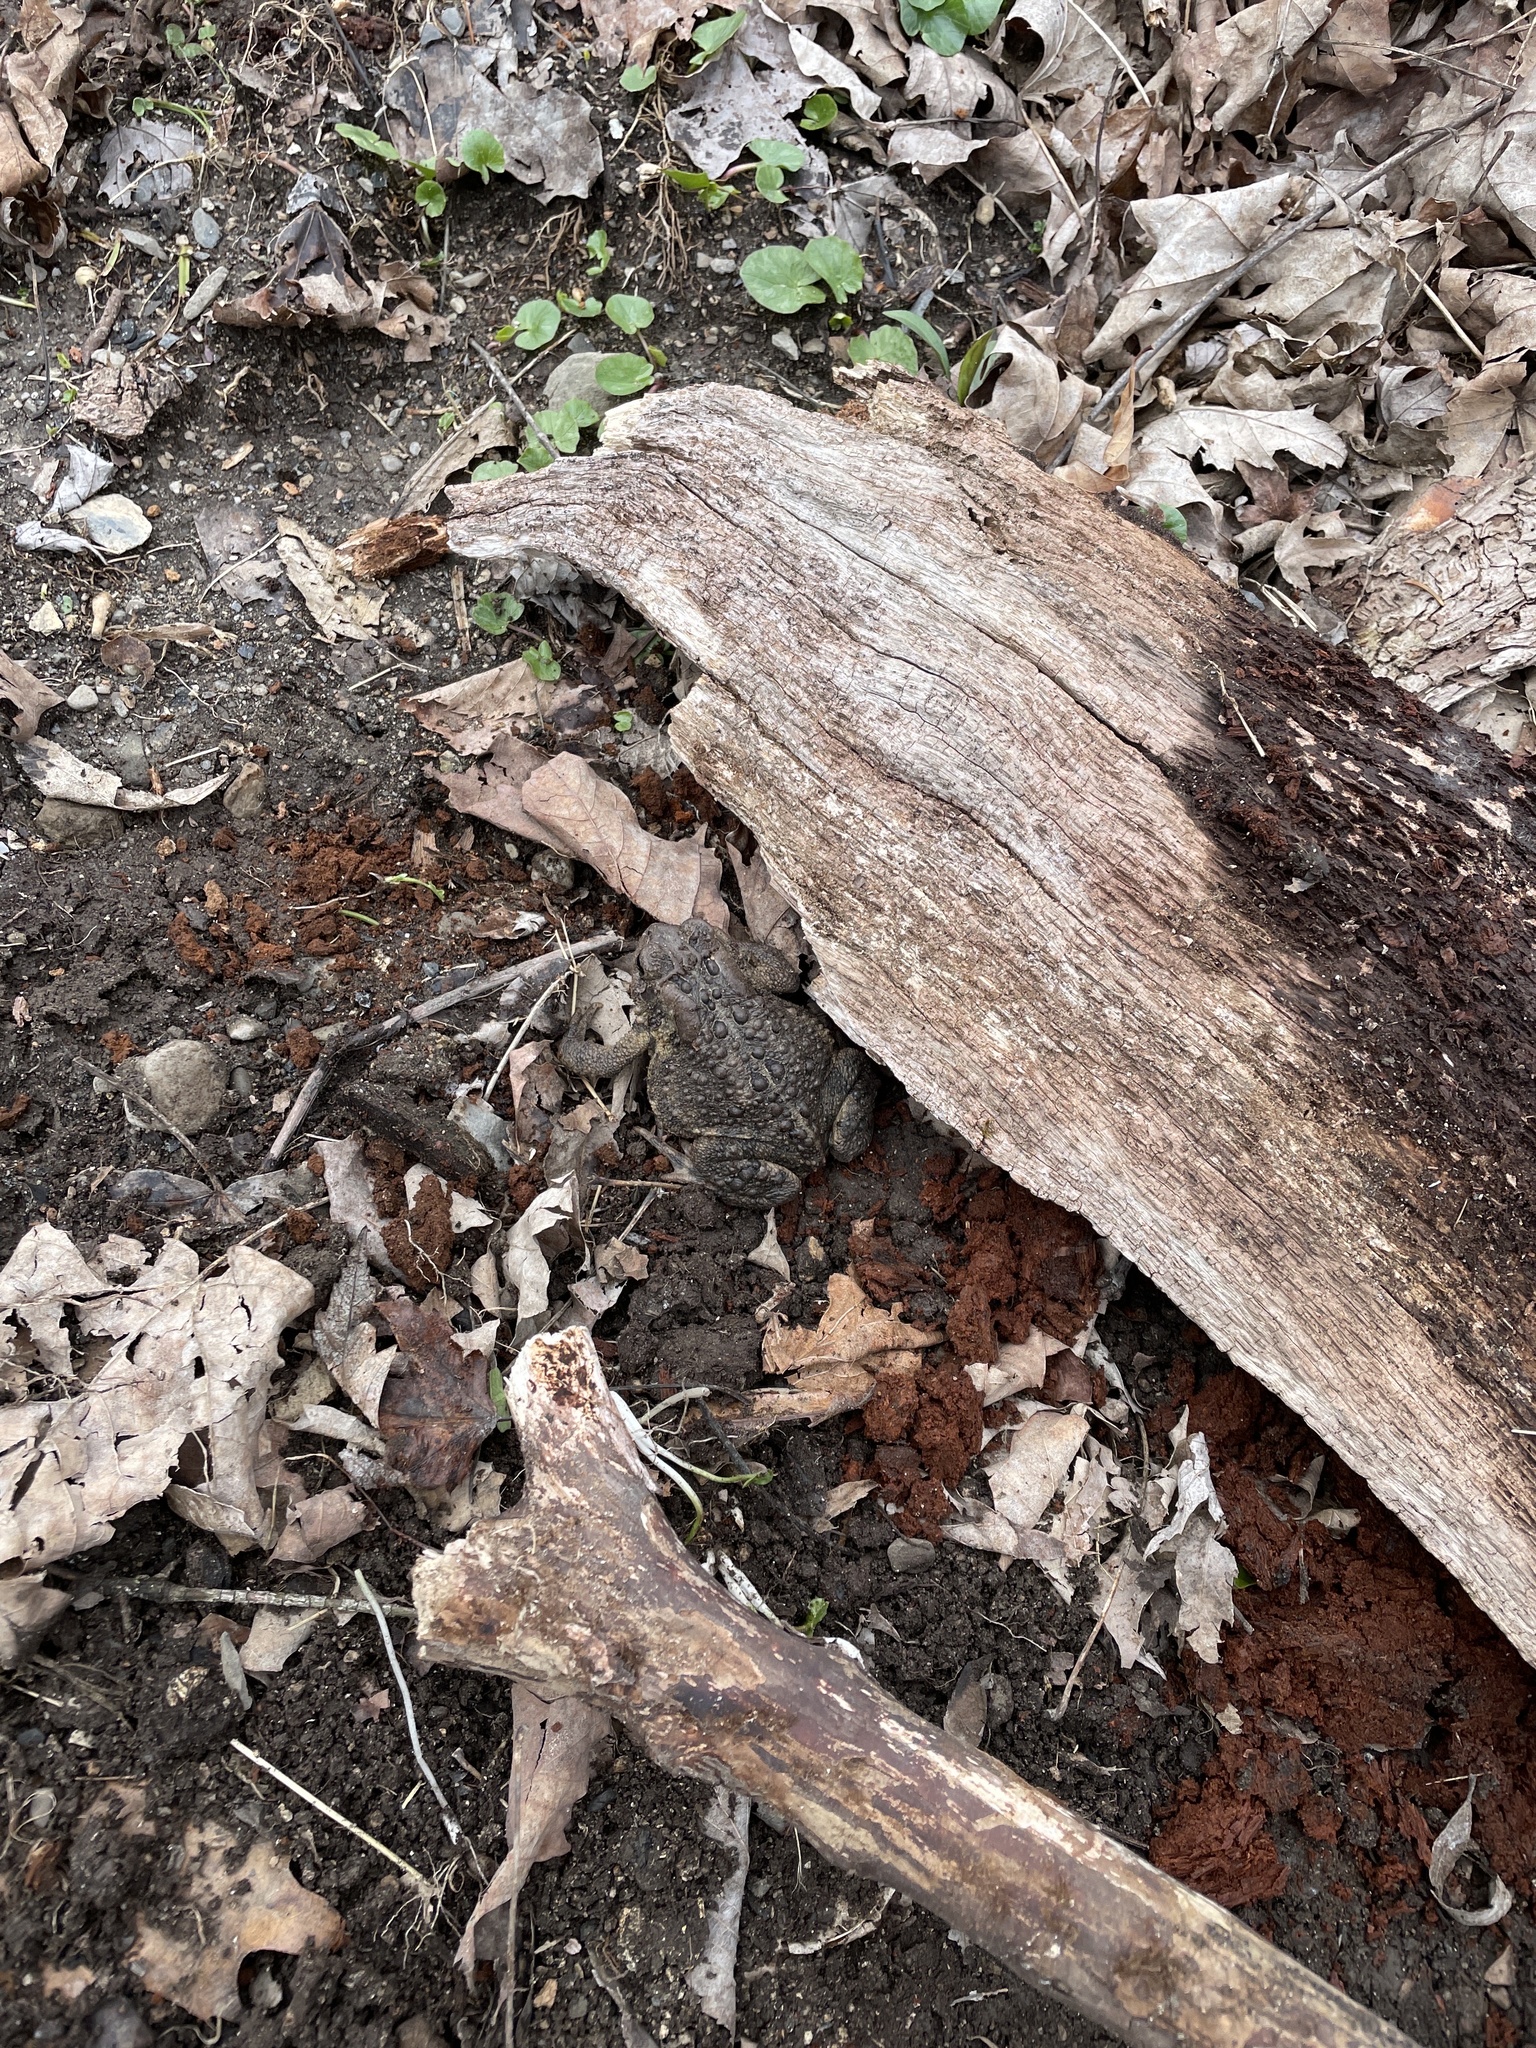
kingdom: Animalia
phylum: Chordata
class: Amphibia
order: Anura
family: Bufonidae
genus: Anaxyrus
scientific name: Anaxyrus americanus
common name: American toad
